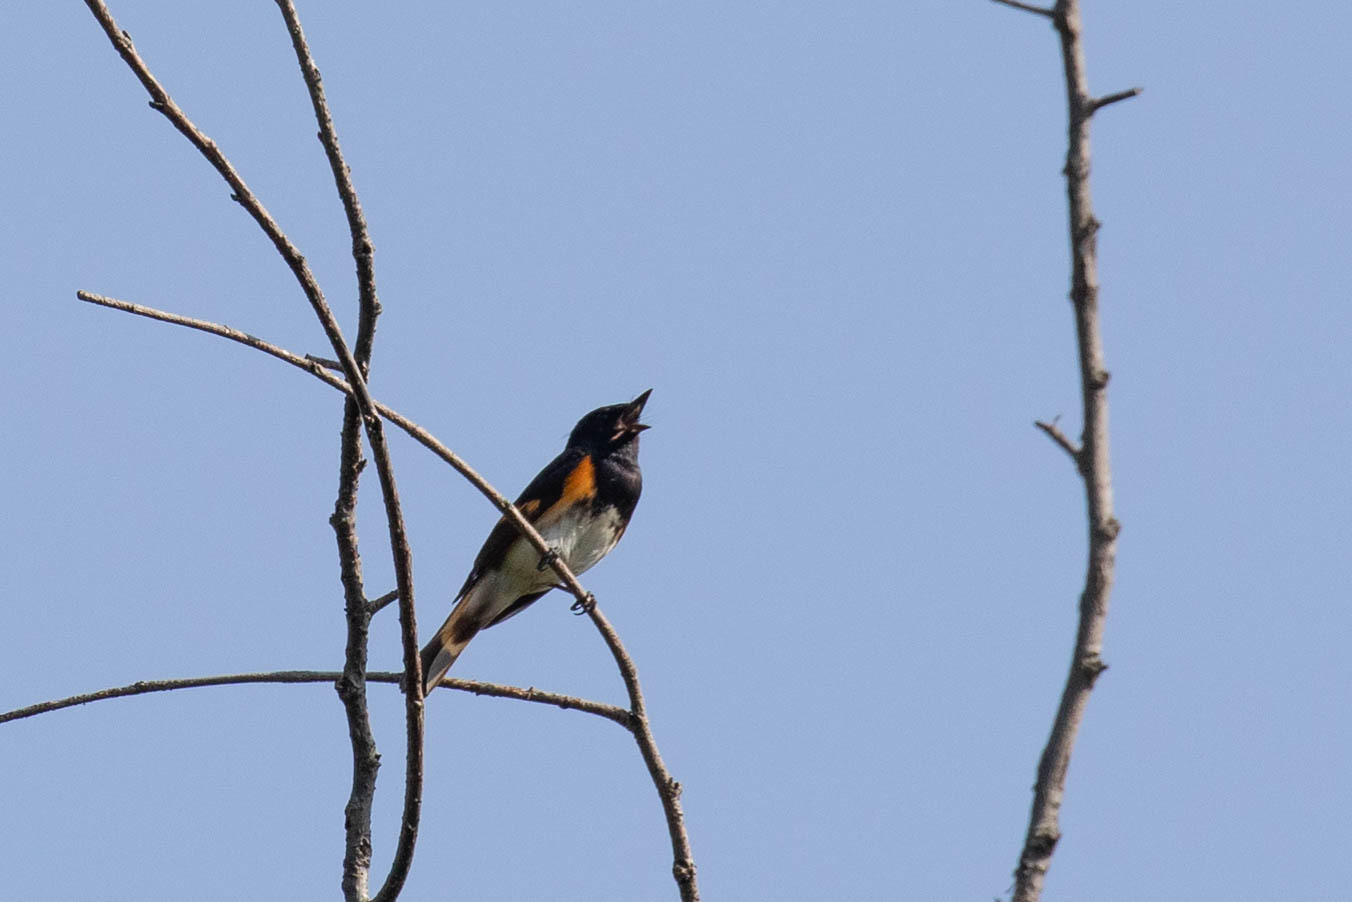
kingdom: Animalia
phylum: Chordata
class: Aves
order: Passeriformes
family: Parulidae
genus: Setophaga
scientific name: Setophaga ruticilla
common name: American redstart
